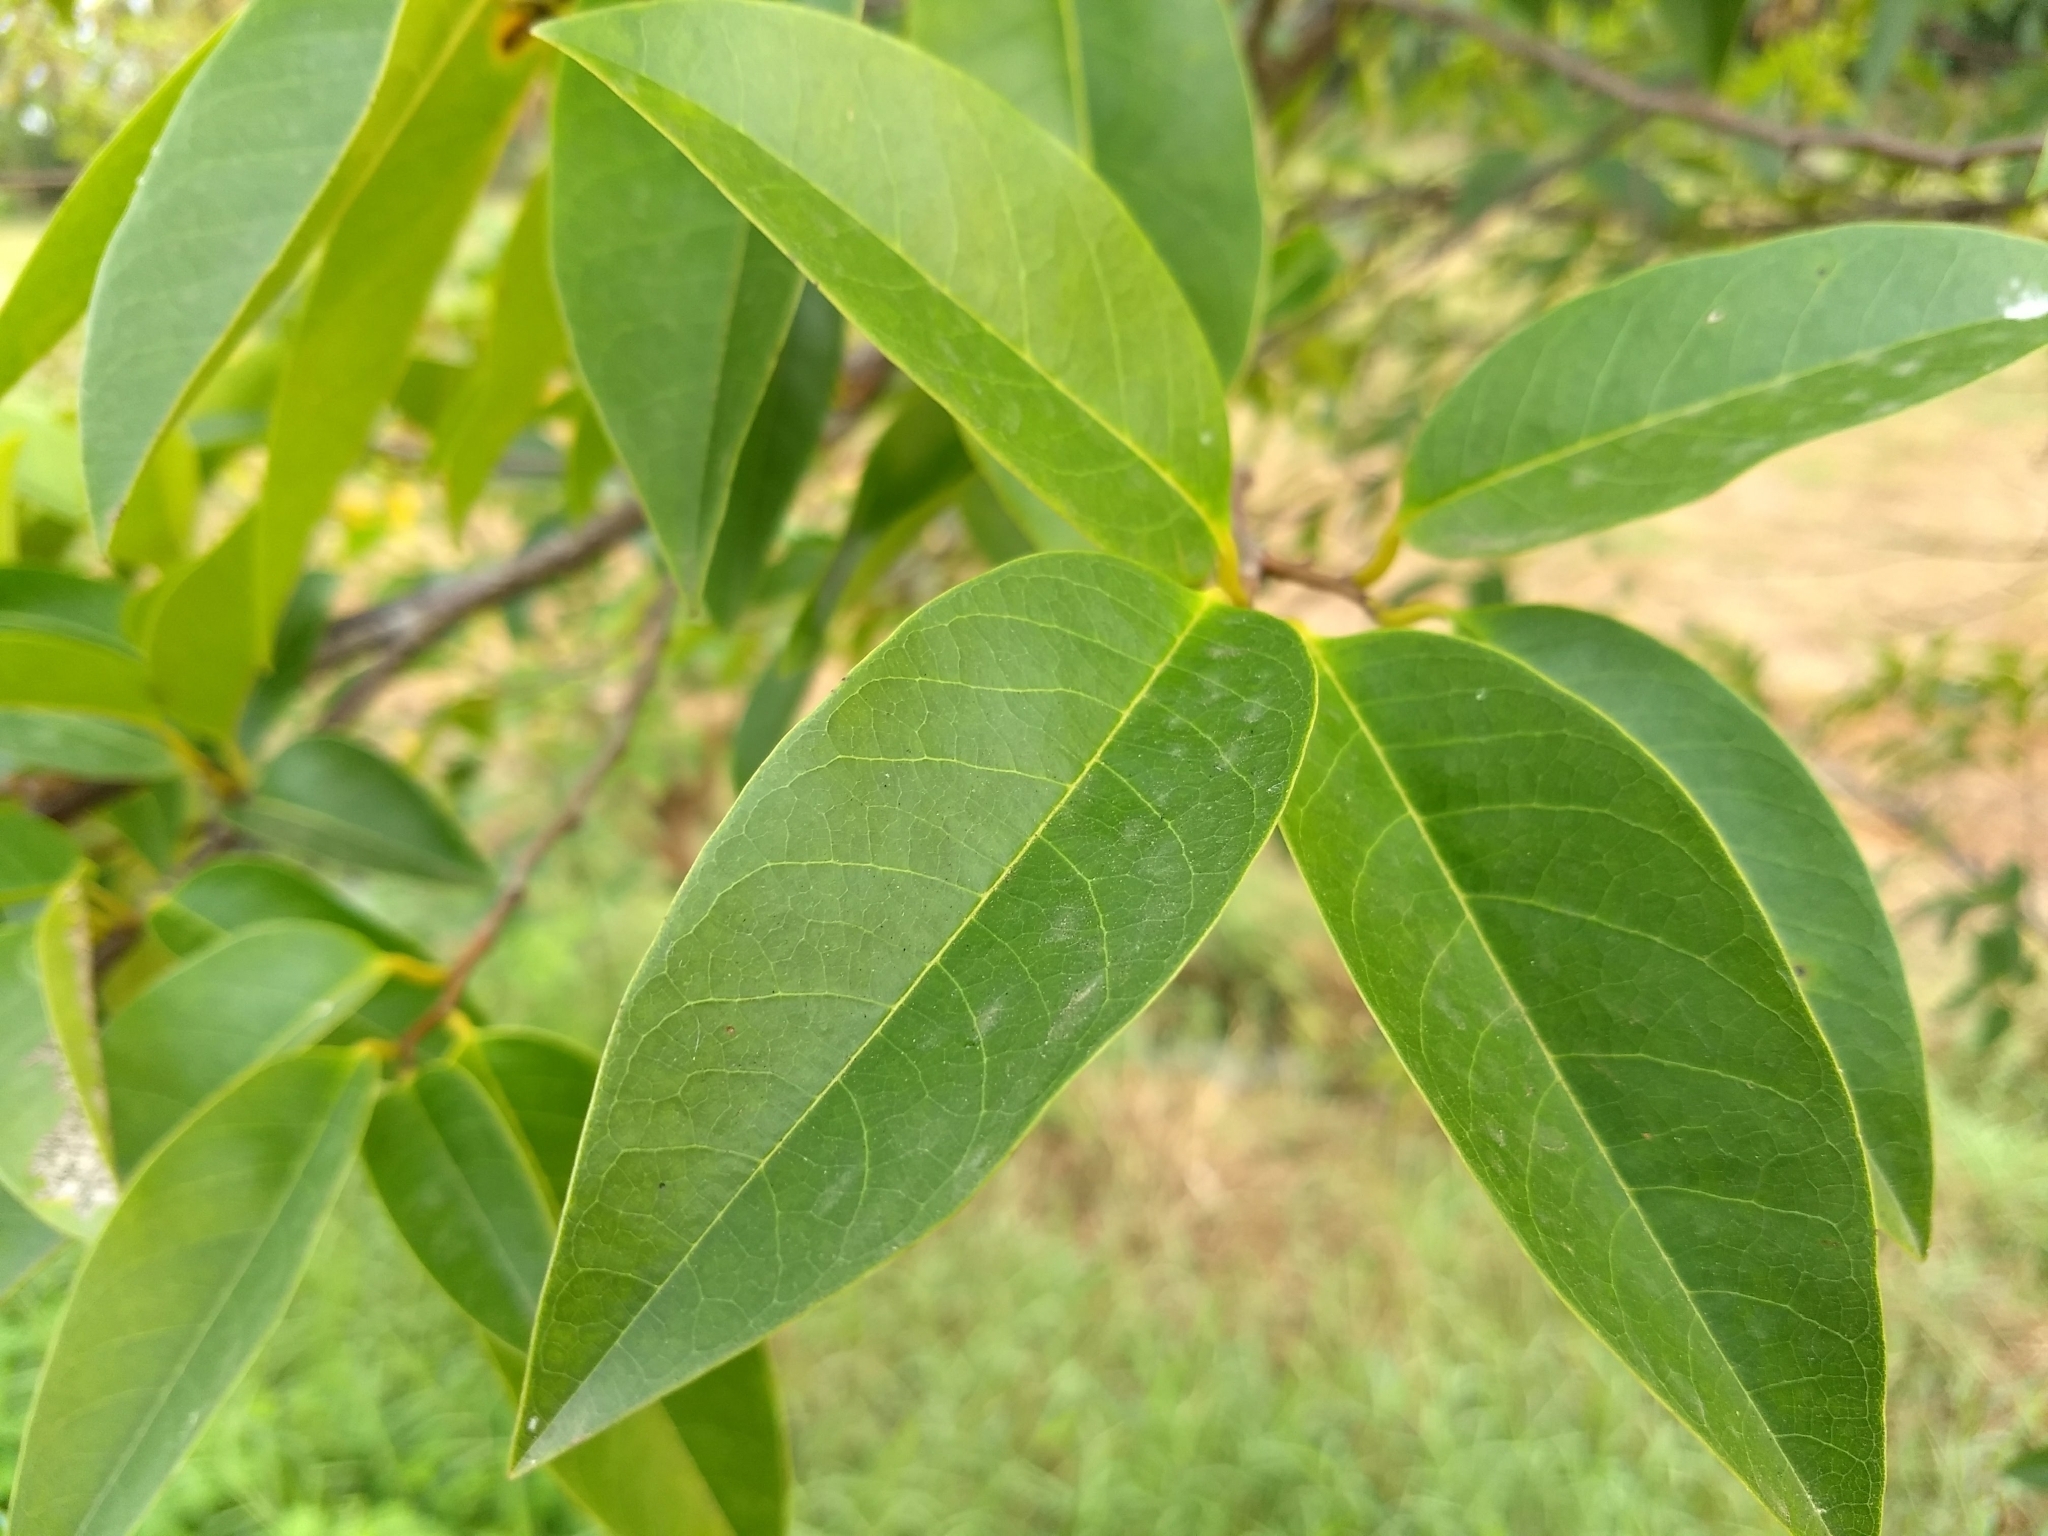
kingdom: Plantae
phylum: Tracheophyta
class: Magnoliopsida
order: Magnoliales
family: Annonaceae
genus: Annona
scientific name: Annona glabra
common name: Monkey apple
